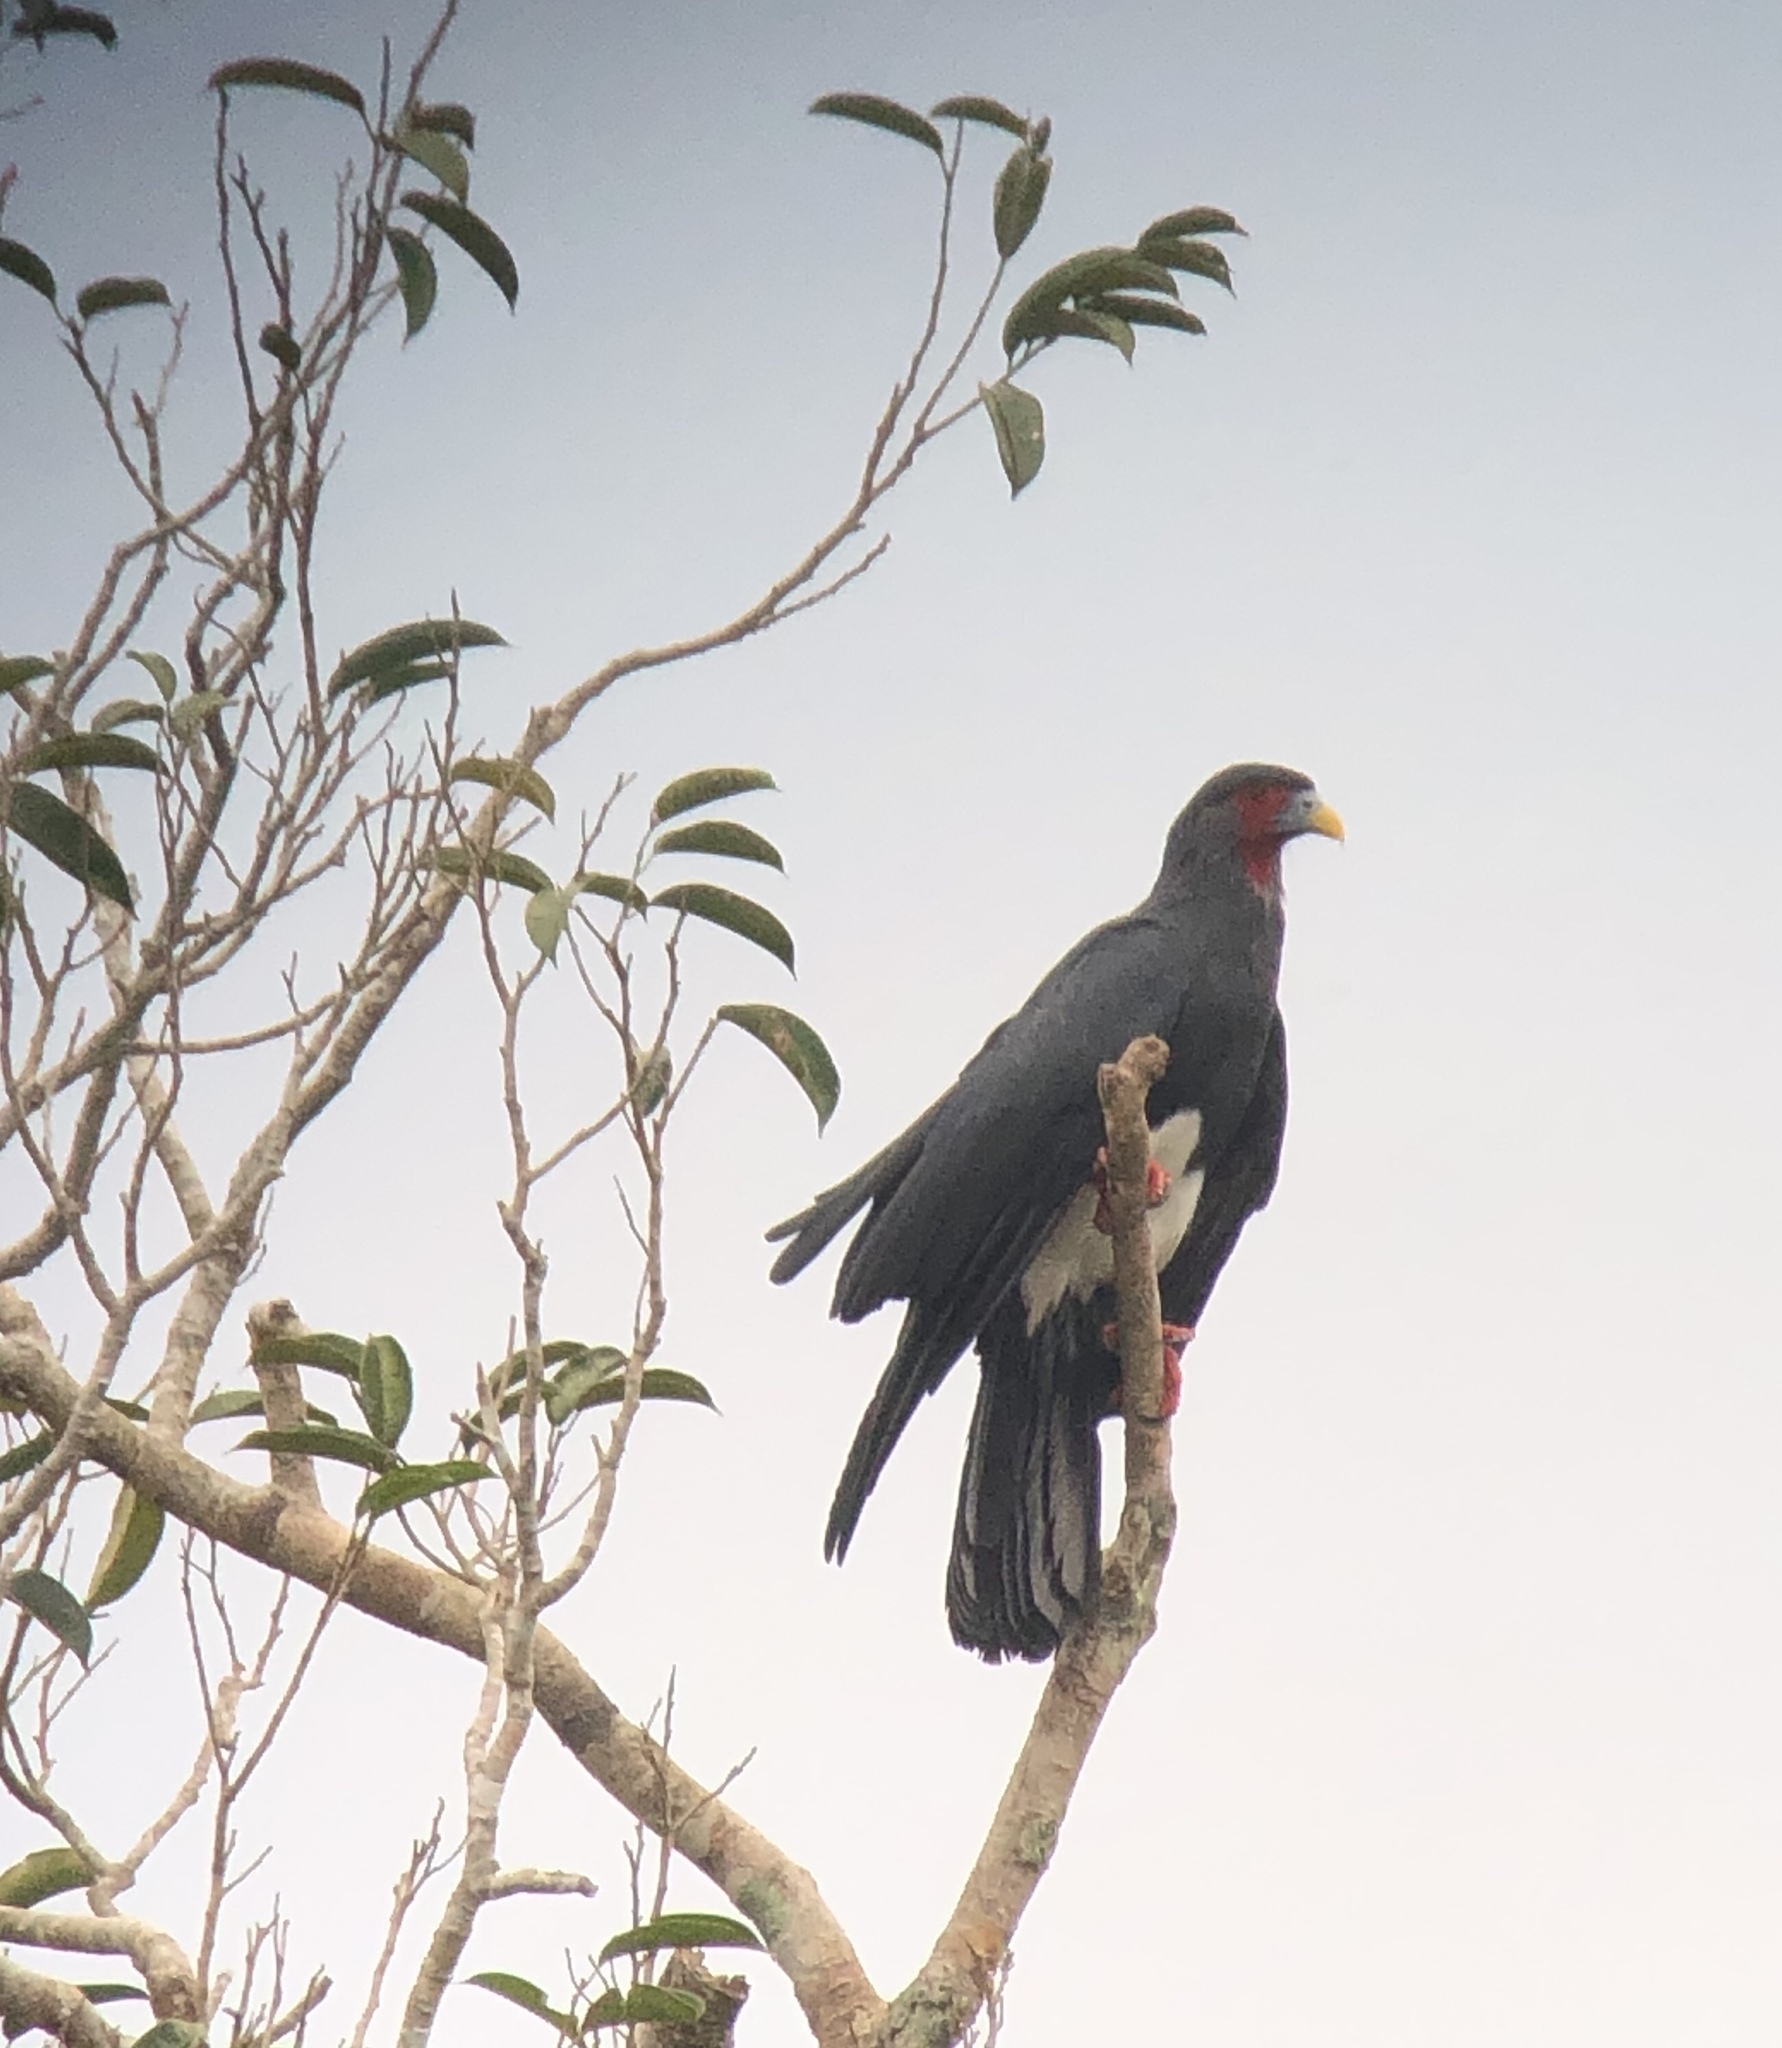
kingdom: Animalia
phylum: Chordata
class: Aves
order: Falconiformes
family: Falconidae
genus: Ibycter
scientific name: Ibycter americanus
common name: Red-throated caracara
